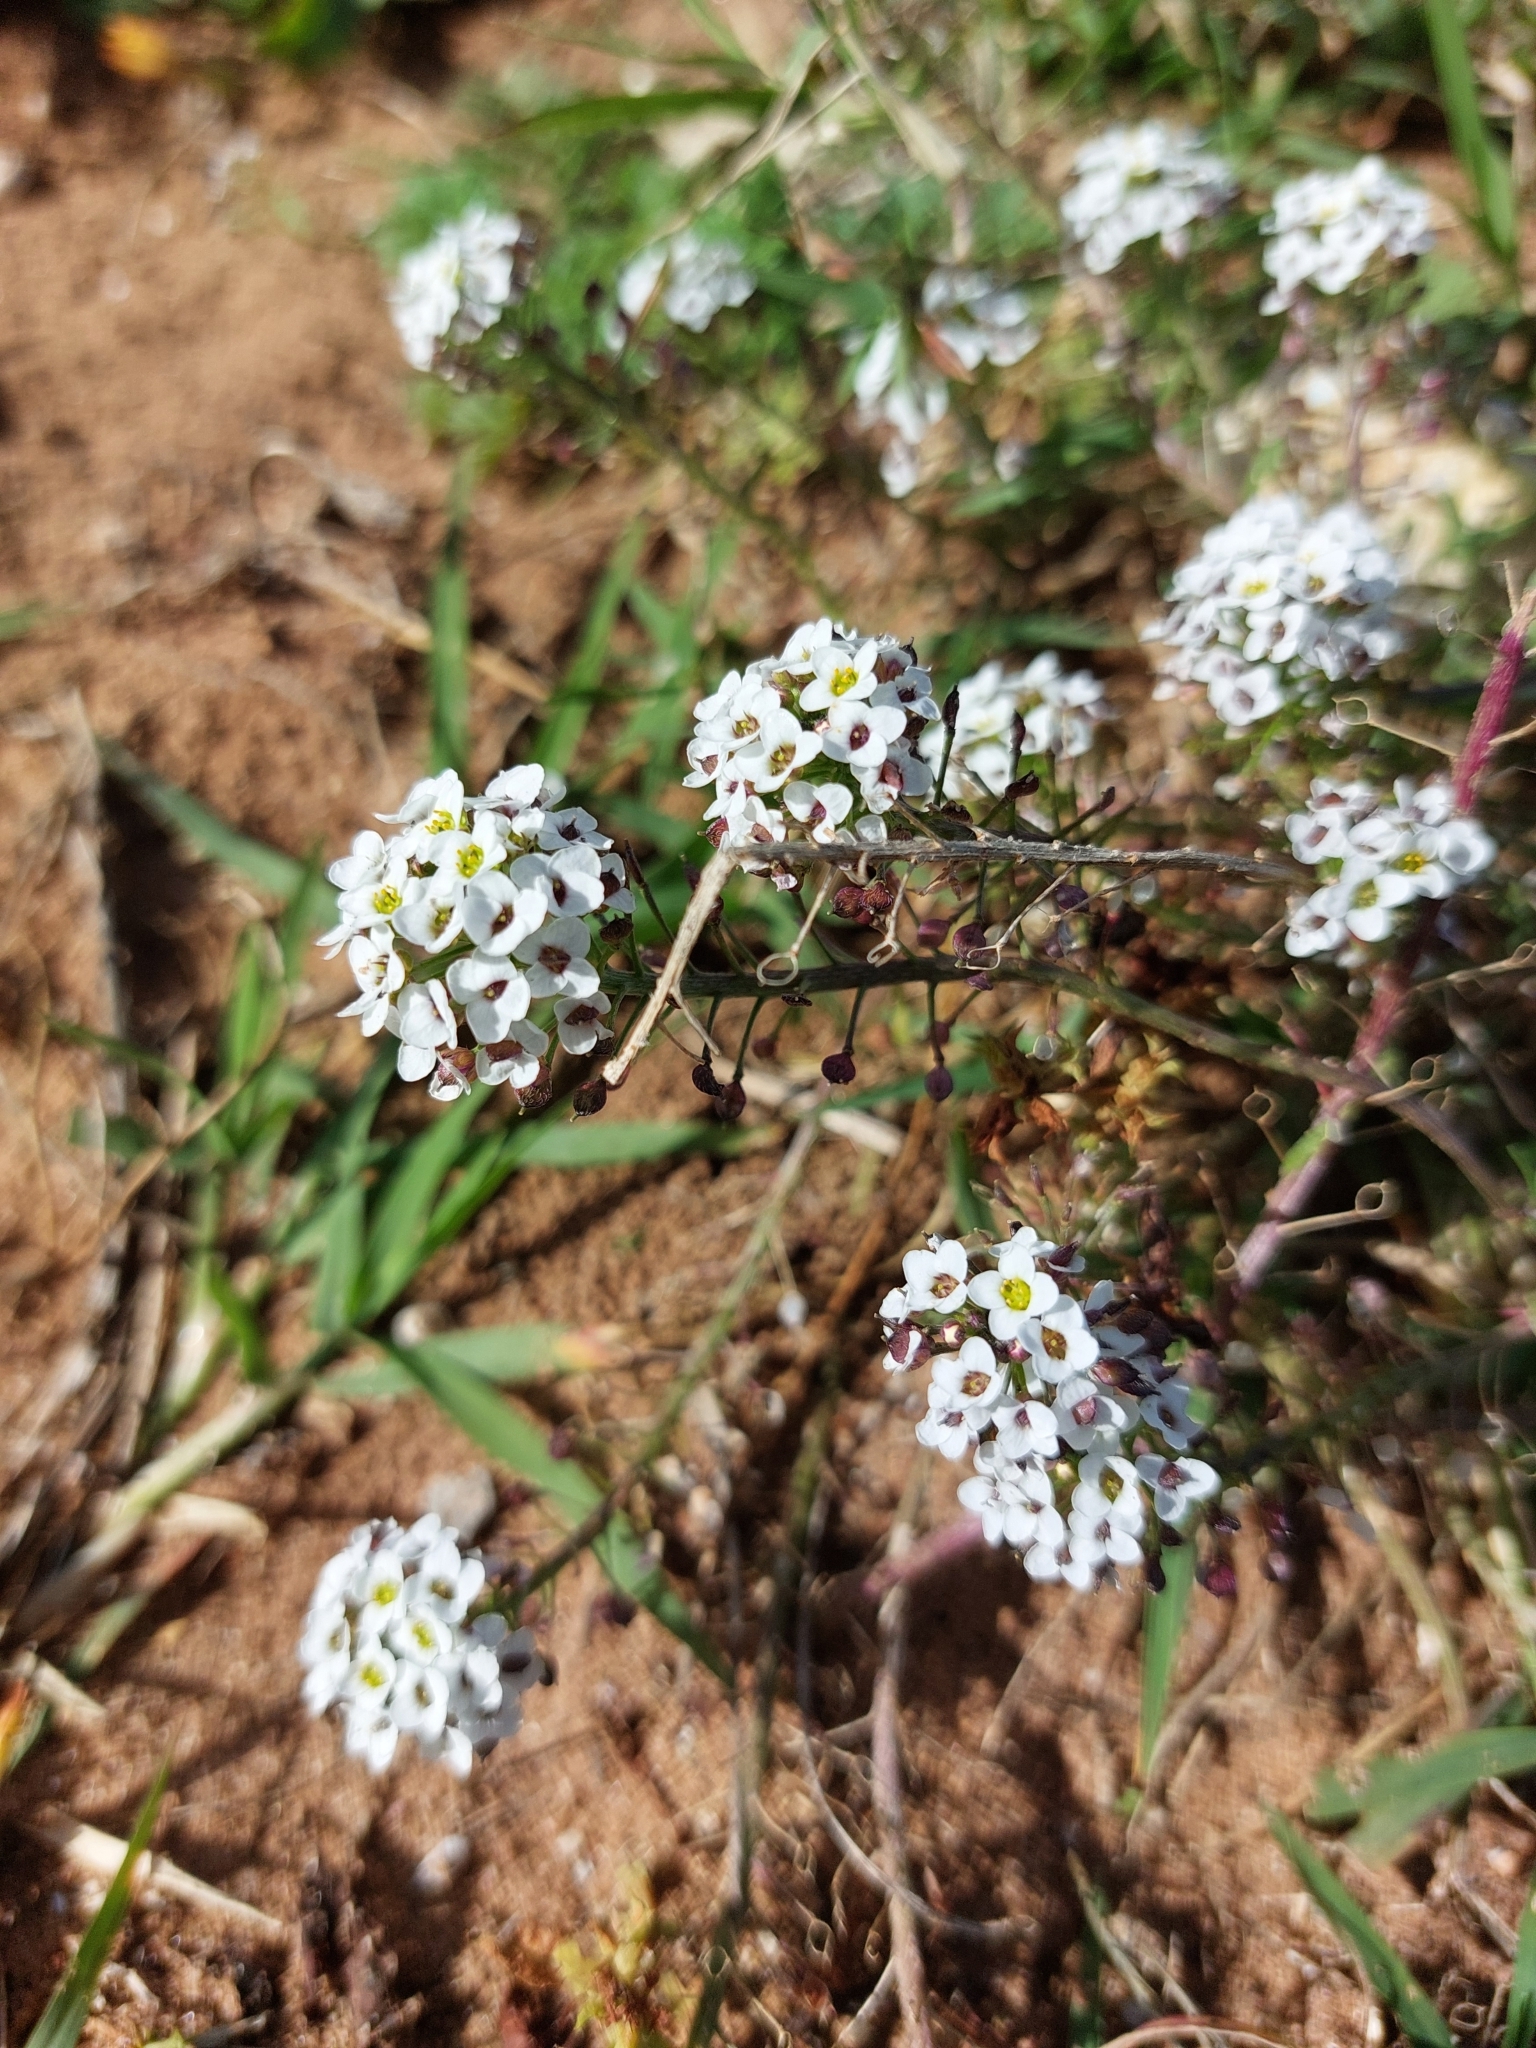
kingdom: Plantae
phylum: Tracheophyta
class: Magnoliopsida
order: Brassicales
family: Brassicaceae
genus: Lobularia
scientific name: Lobularia maritima
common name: Sweet alison
